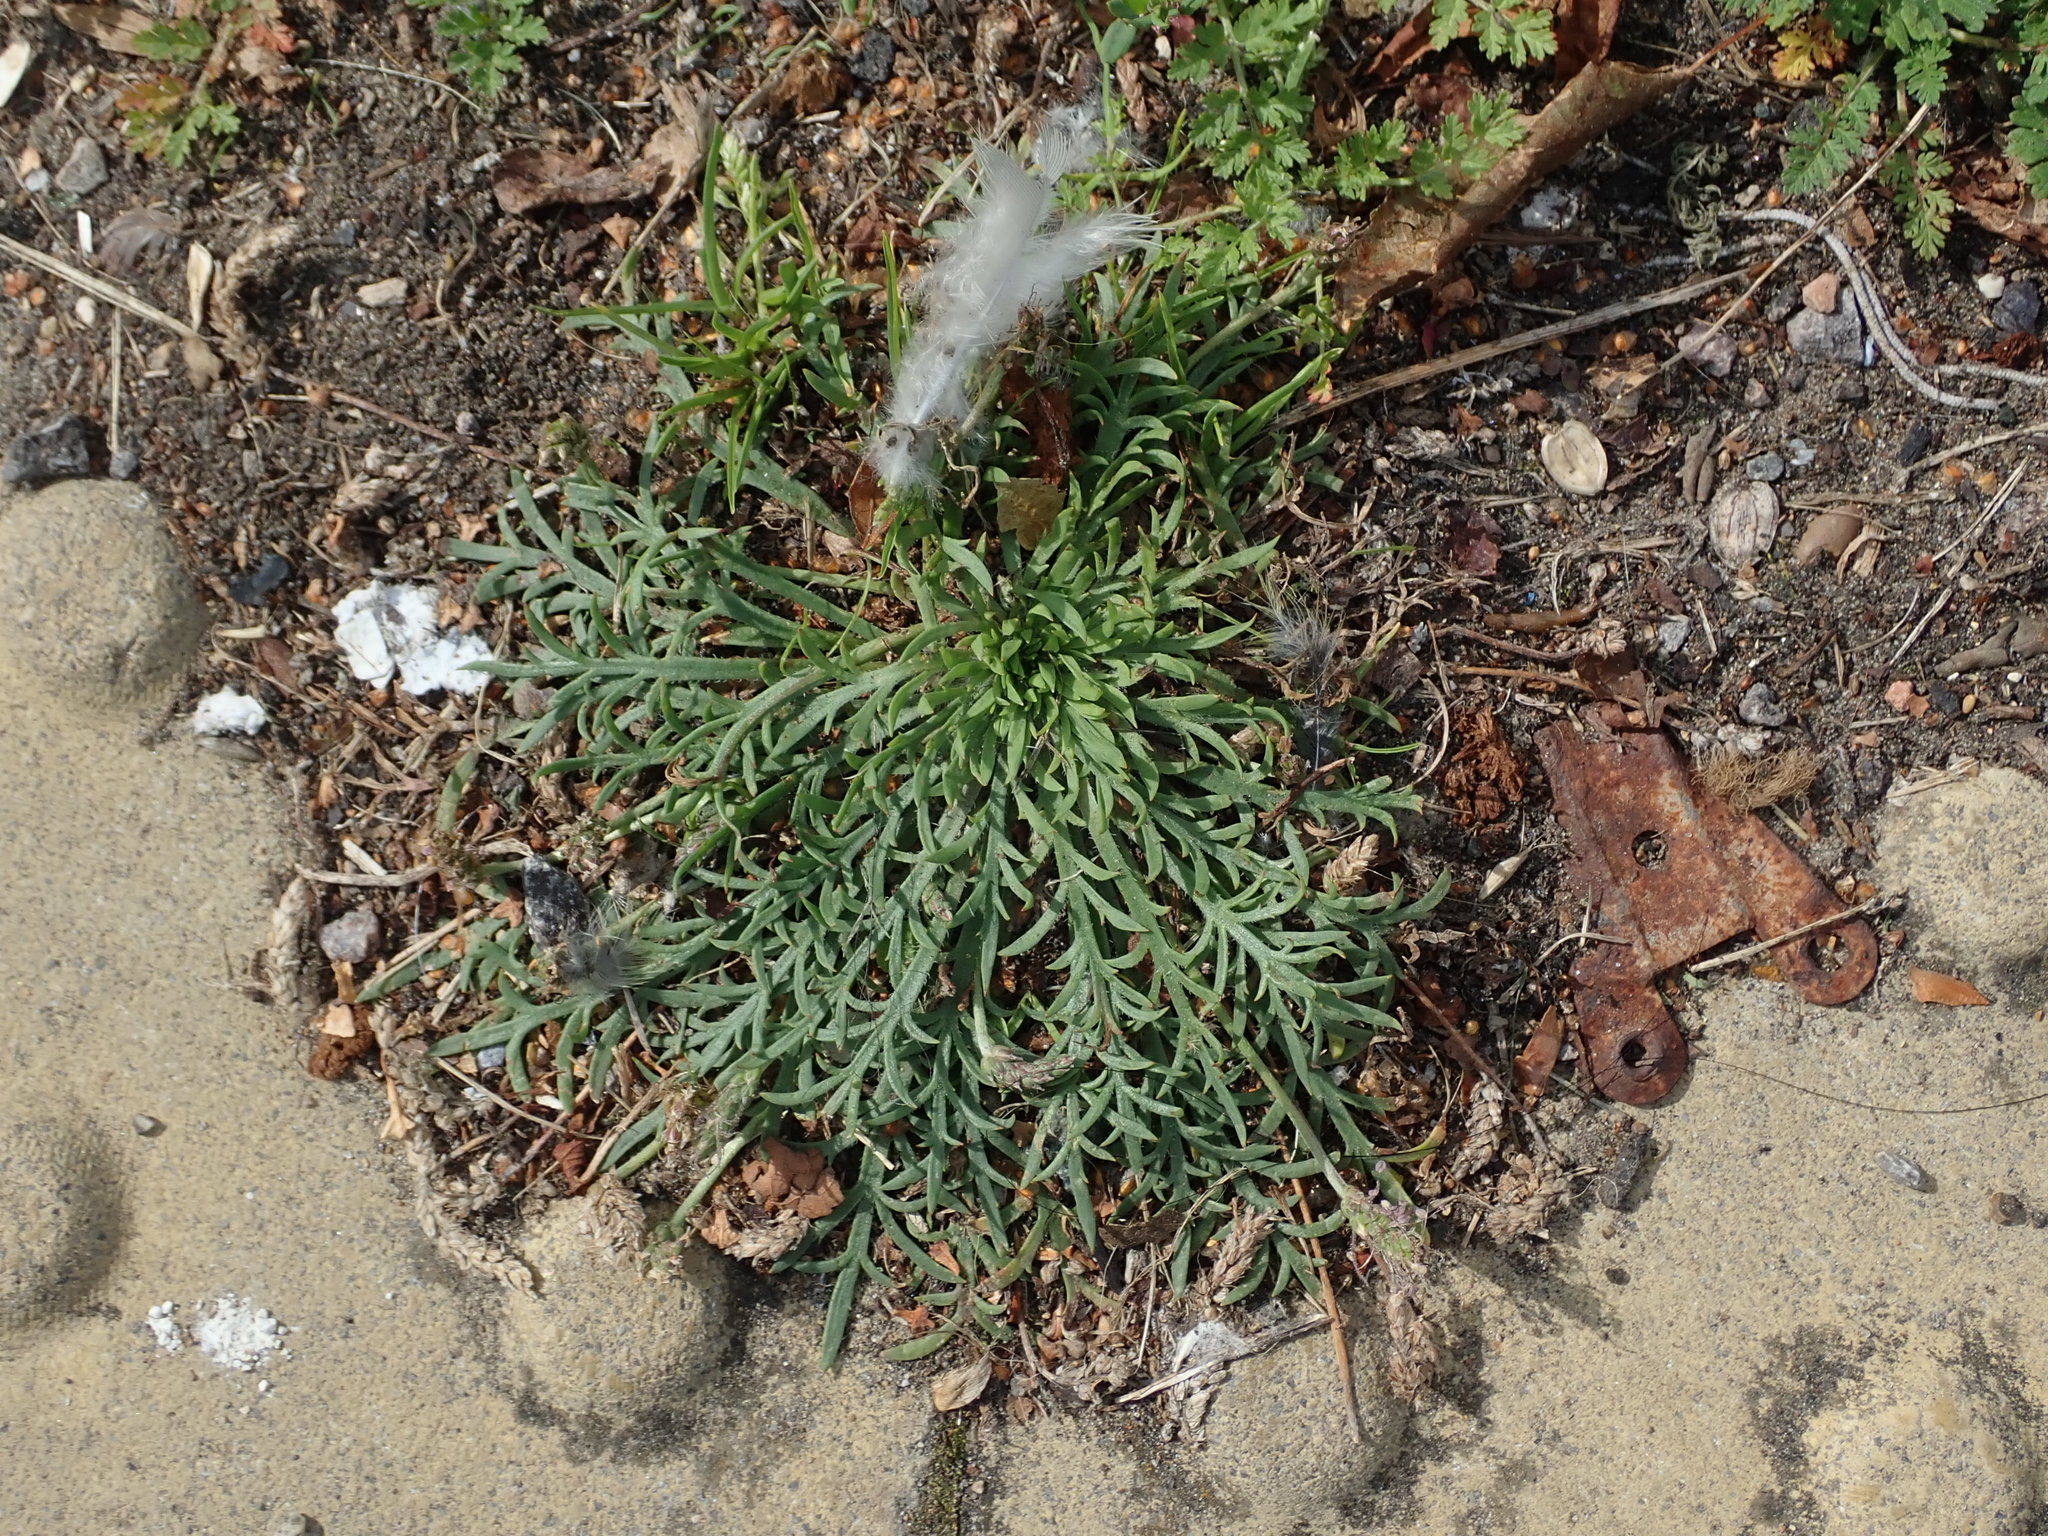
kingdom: Plantae
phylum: Tracheophyta
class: Magnoliopsida
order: Lamiales
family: Plantaginaceae
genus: Plantago
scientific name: Plantago coronopus
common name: Buck's-horn plantain
